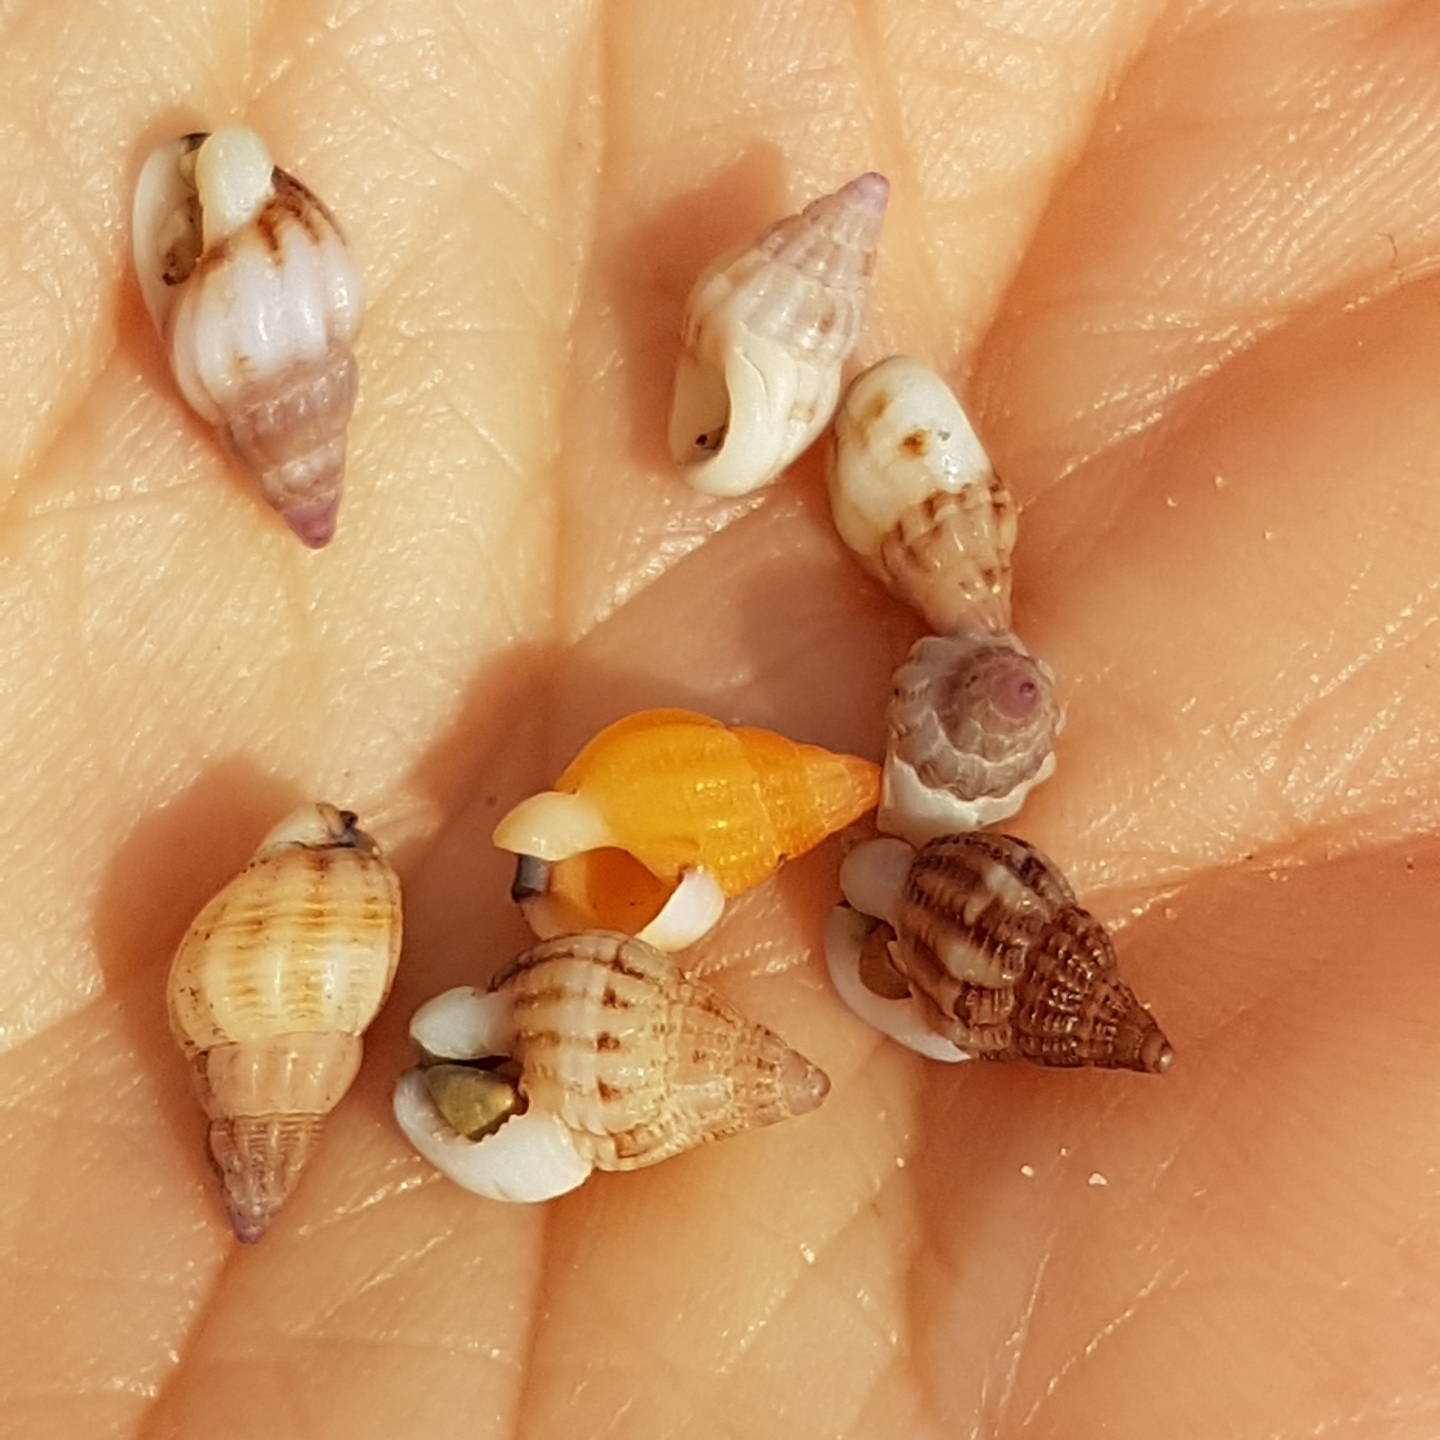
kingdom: Animalia
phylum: Mollusca
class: Gastropoda
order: Neogastropoda
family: Nassariidae
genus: Tritia
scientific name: Tritia incrassata
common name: Thick-lipped dog whelk
